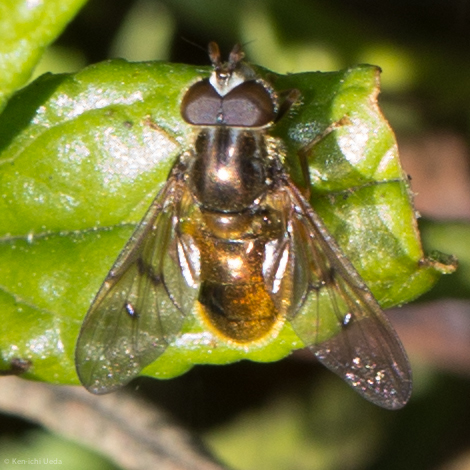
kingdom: Animalia
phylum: Arthropoda
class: Insecta
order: Diptera
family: Syrphidae
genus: Ferdinandea
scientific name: Ferdinandea croesus
